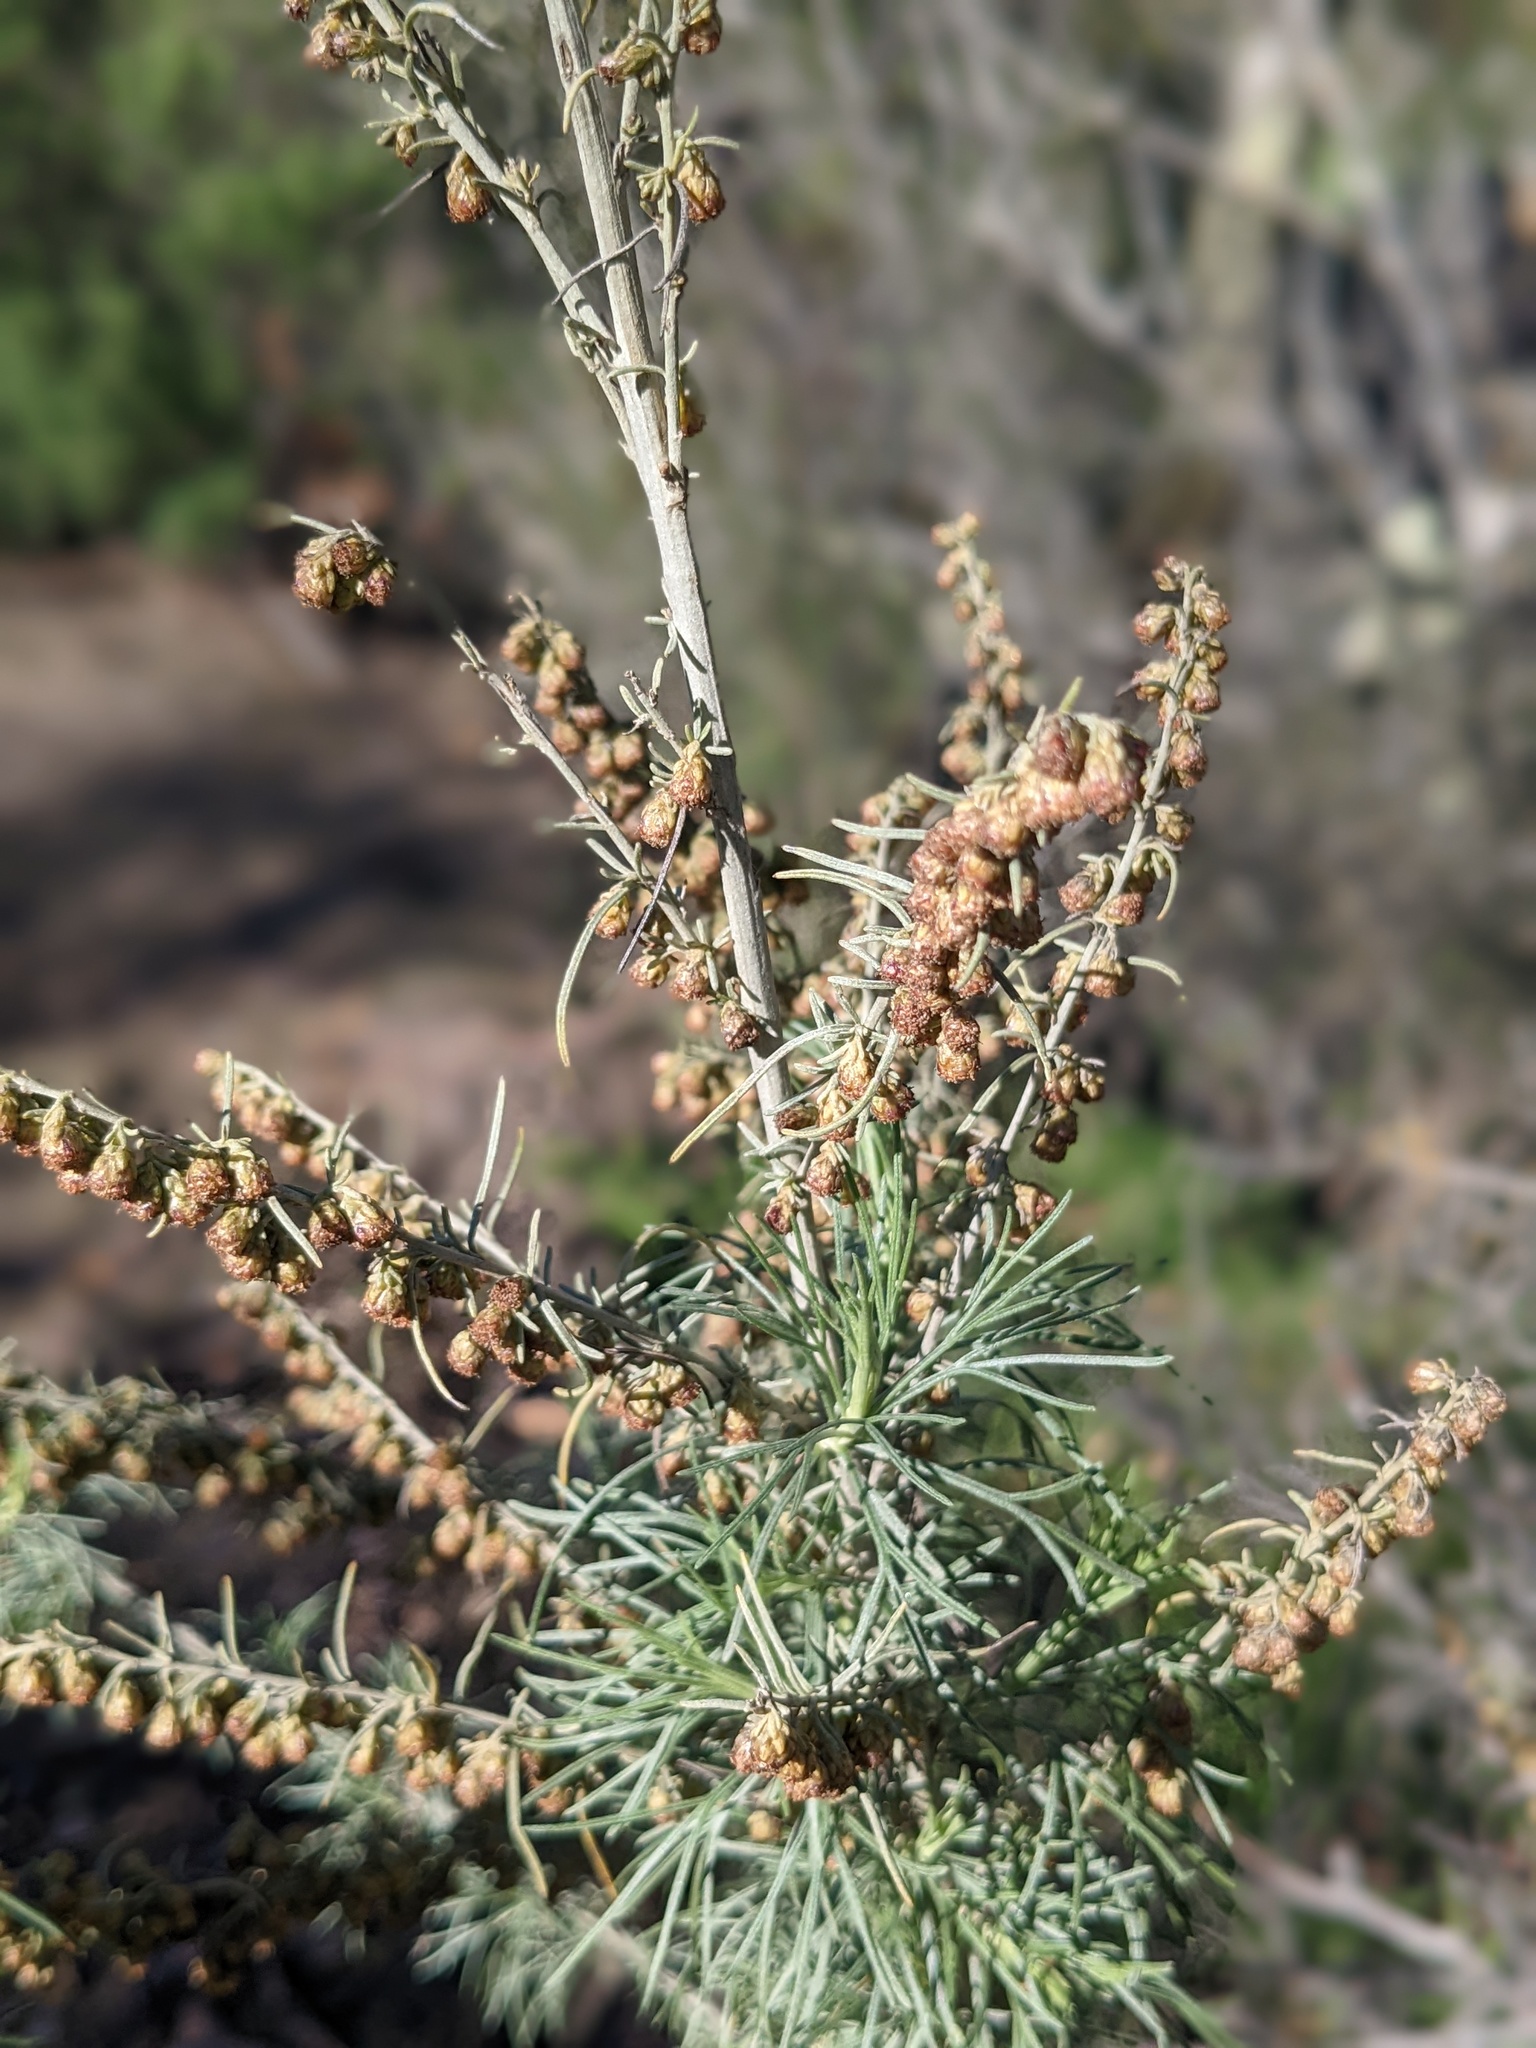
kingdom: Plantae
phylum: Tracheophyta
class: Magnoliopsida
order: Asterales
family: Asteraceae
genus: Artemisia
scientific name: Artemisia californica
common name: California sagebrush
